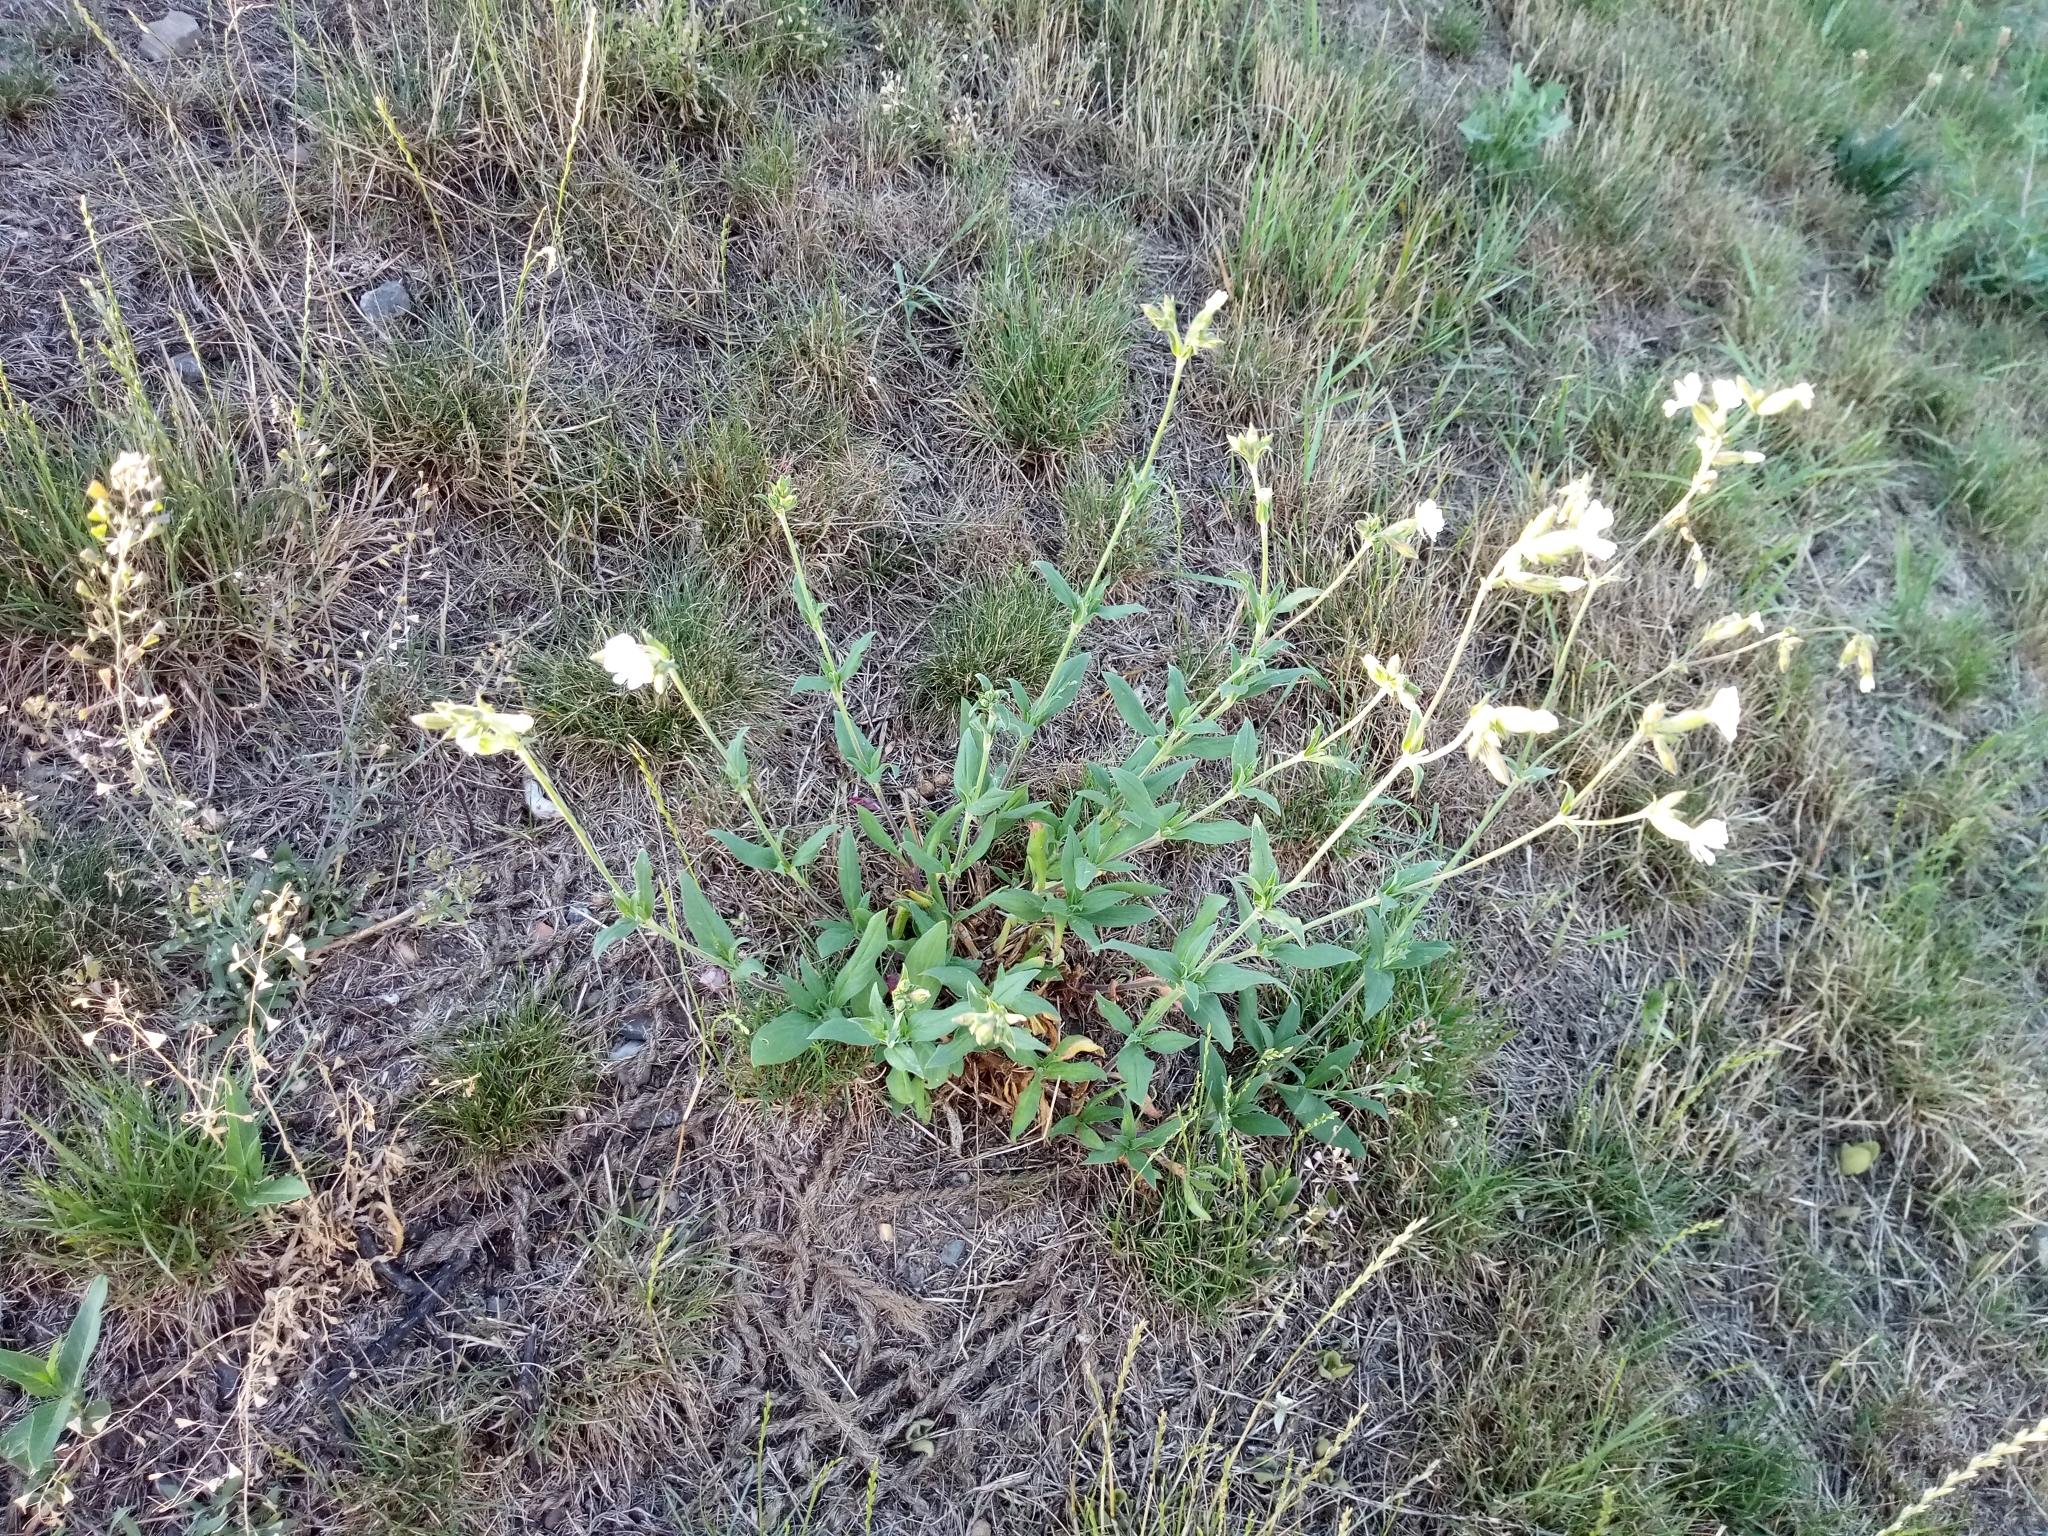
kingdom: Plantae
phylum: Tracheophyta
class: Magnoliopsida
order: Caryophyllales
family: Caryophyllaceae
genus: Silene
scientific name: Silene latifolia
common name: White campion
